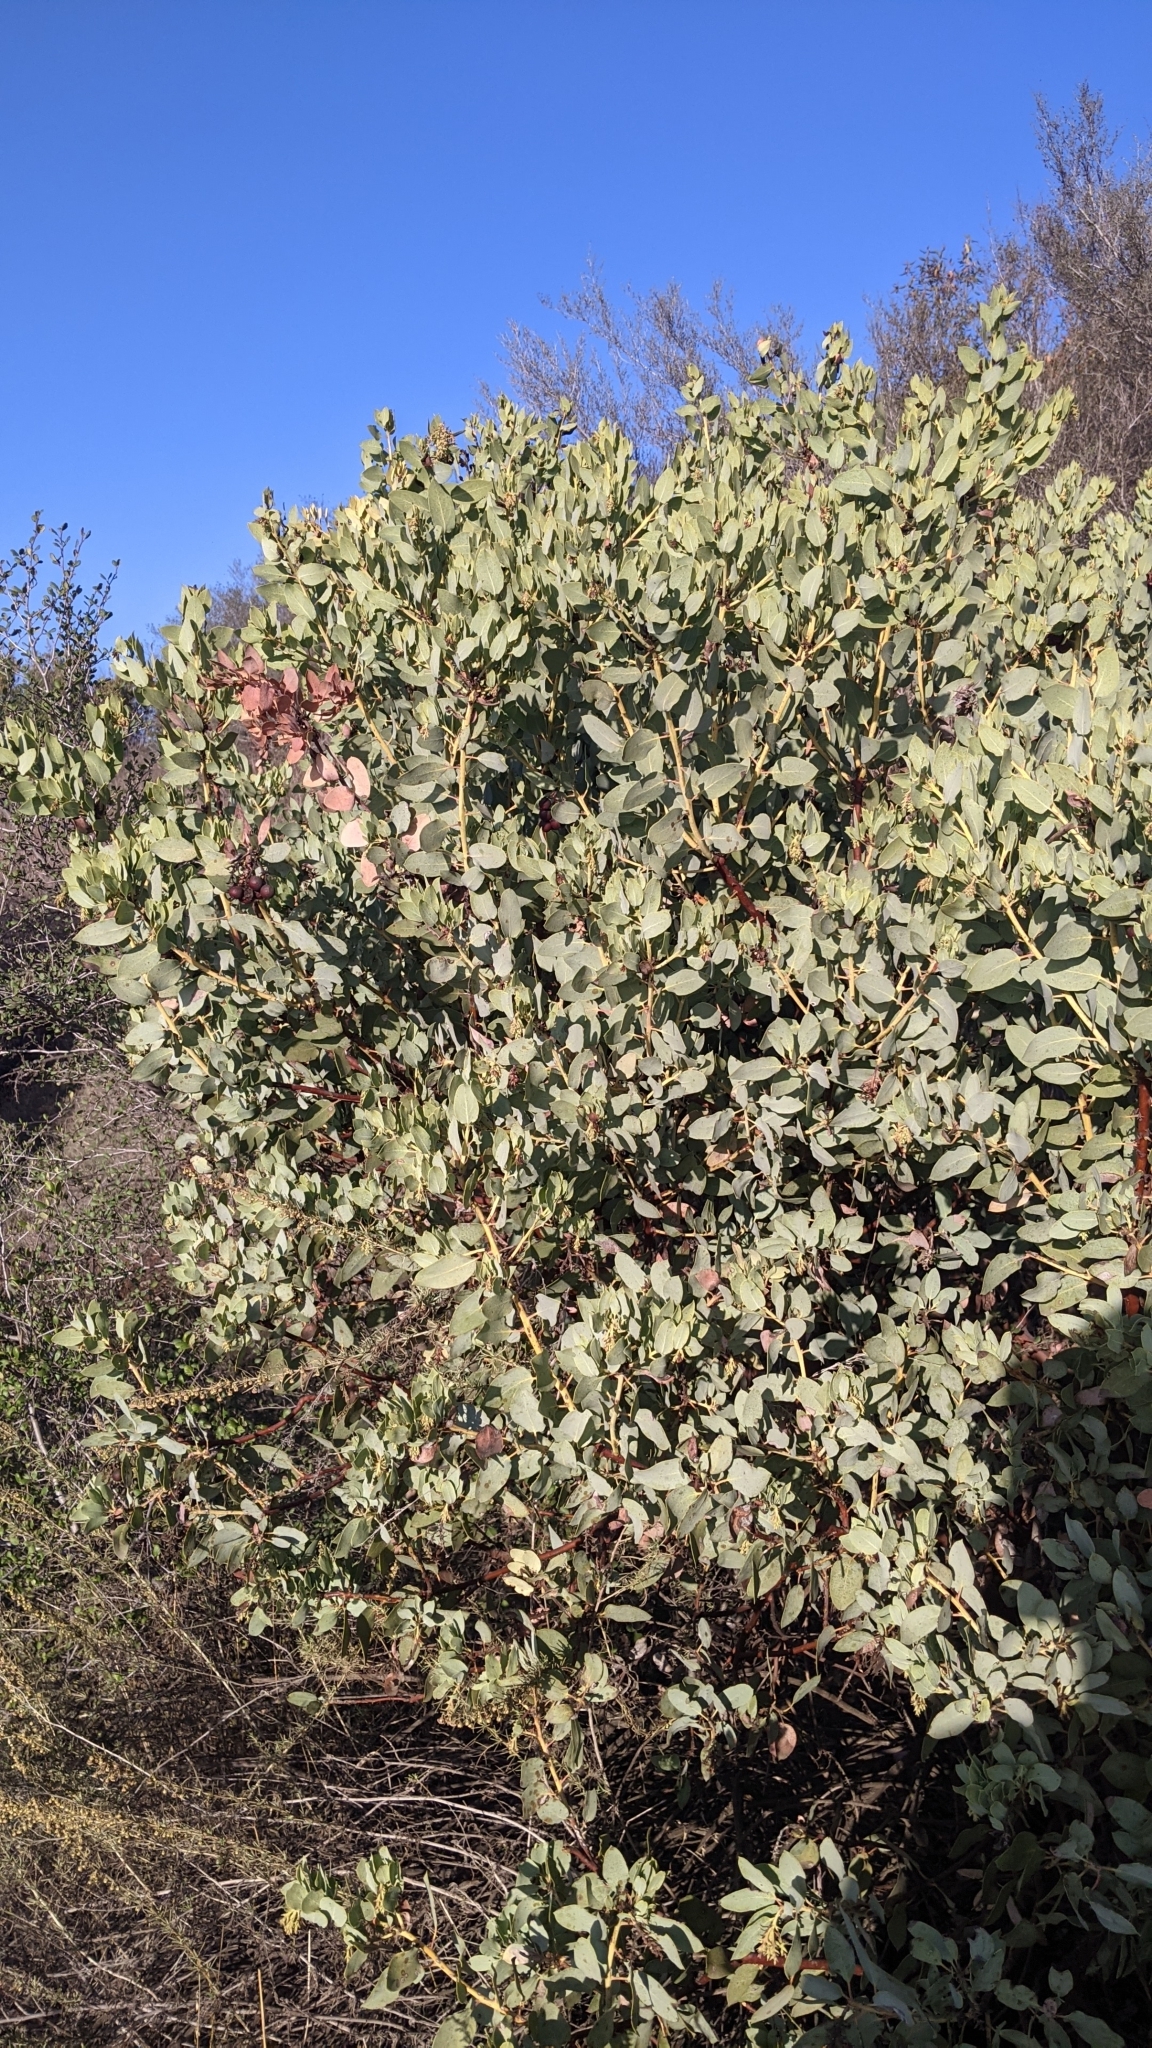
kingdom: Plantae
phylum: Tracheophyta
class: Magnoliopsida
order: Ericales
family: Ericaceae
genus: Arctostaphylos
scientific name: Arctostaphylos glauca
